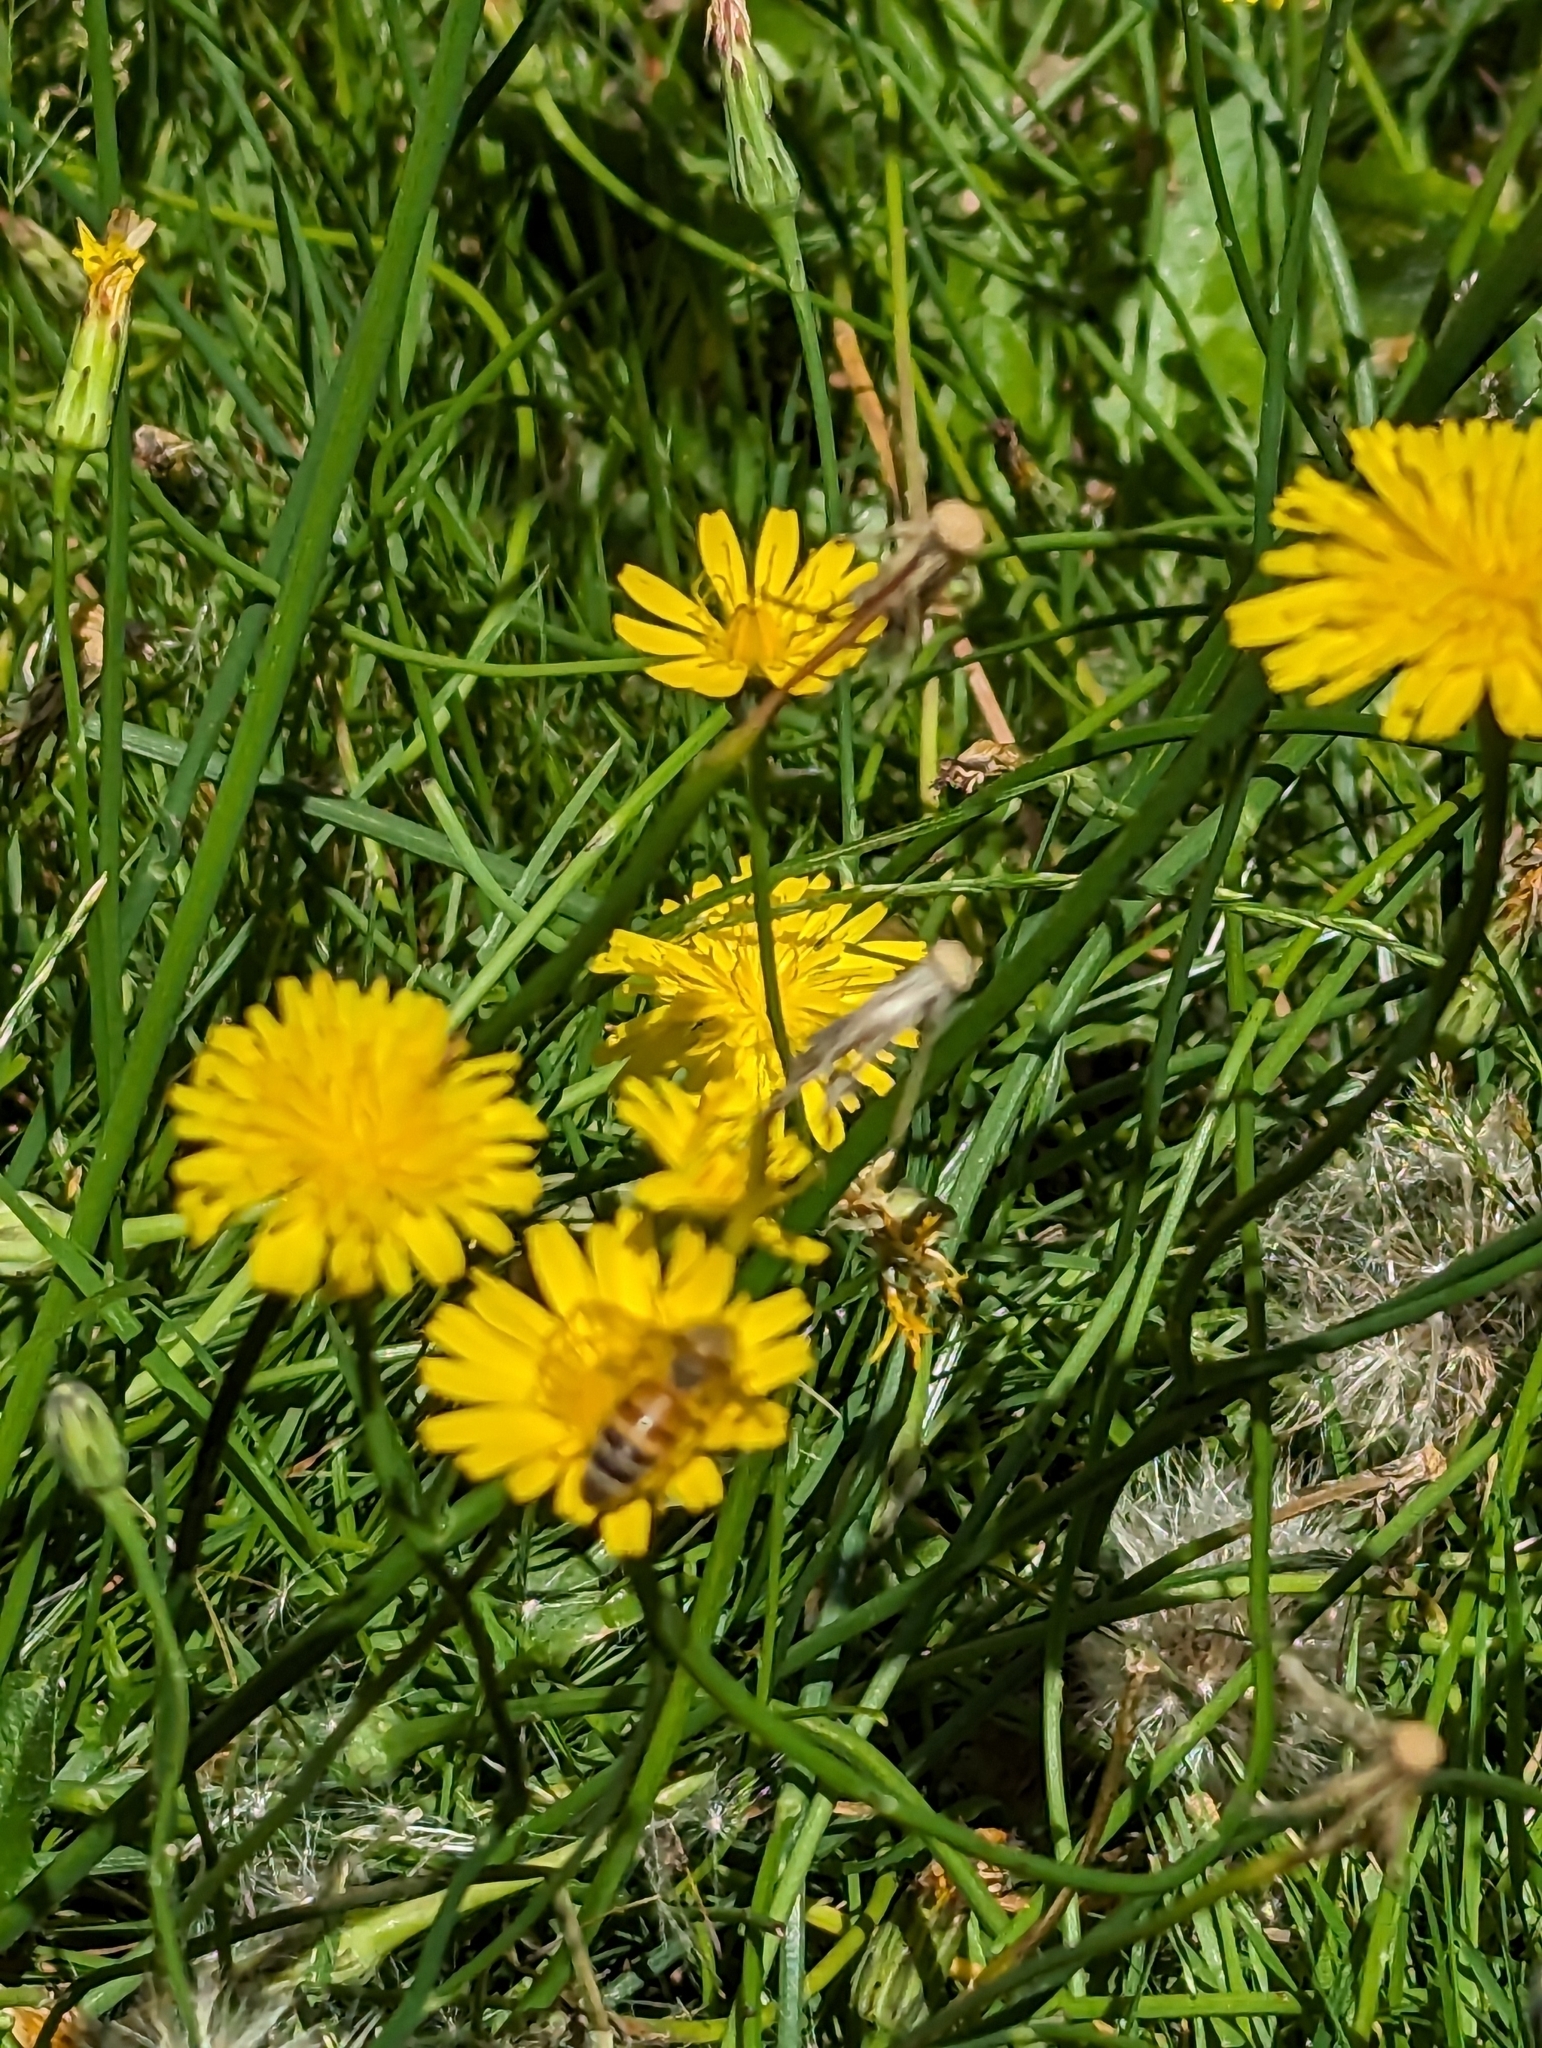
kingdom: Animalia
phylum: Arthropoda
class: Insecta
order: Hymenoptera
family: Apidae
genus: Apis
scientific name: Apis mellifera
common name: Honey bee
